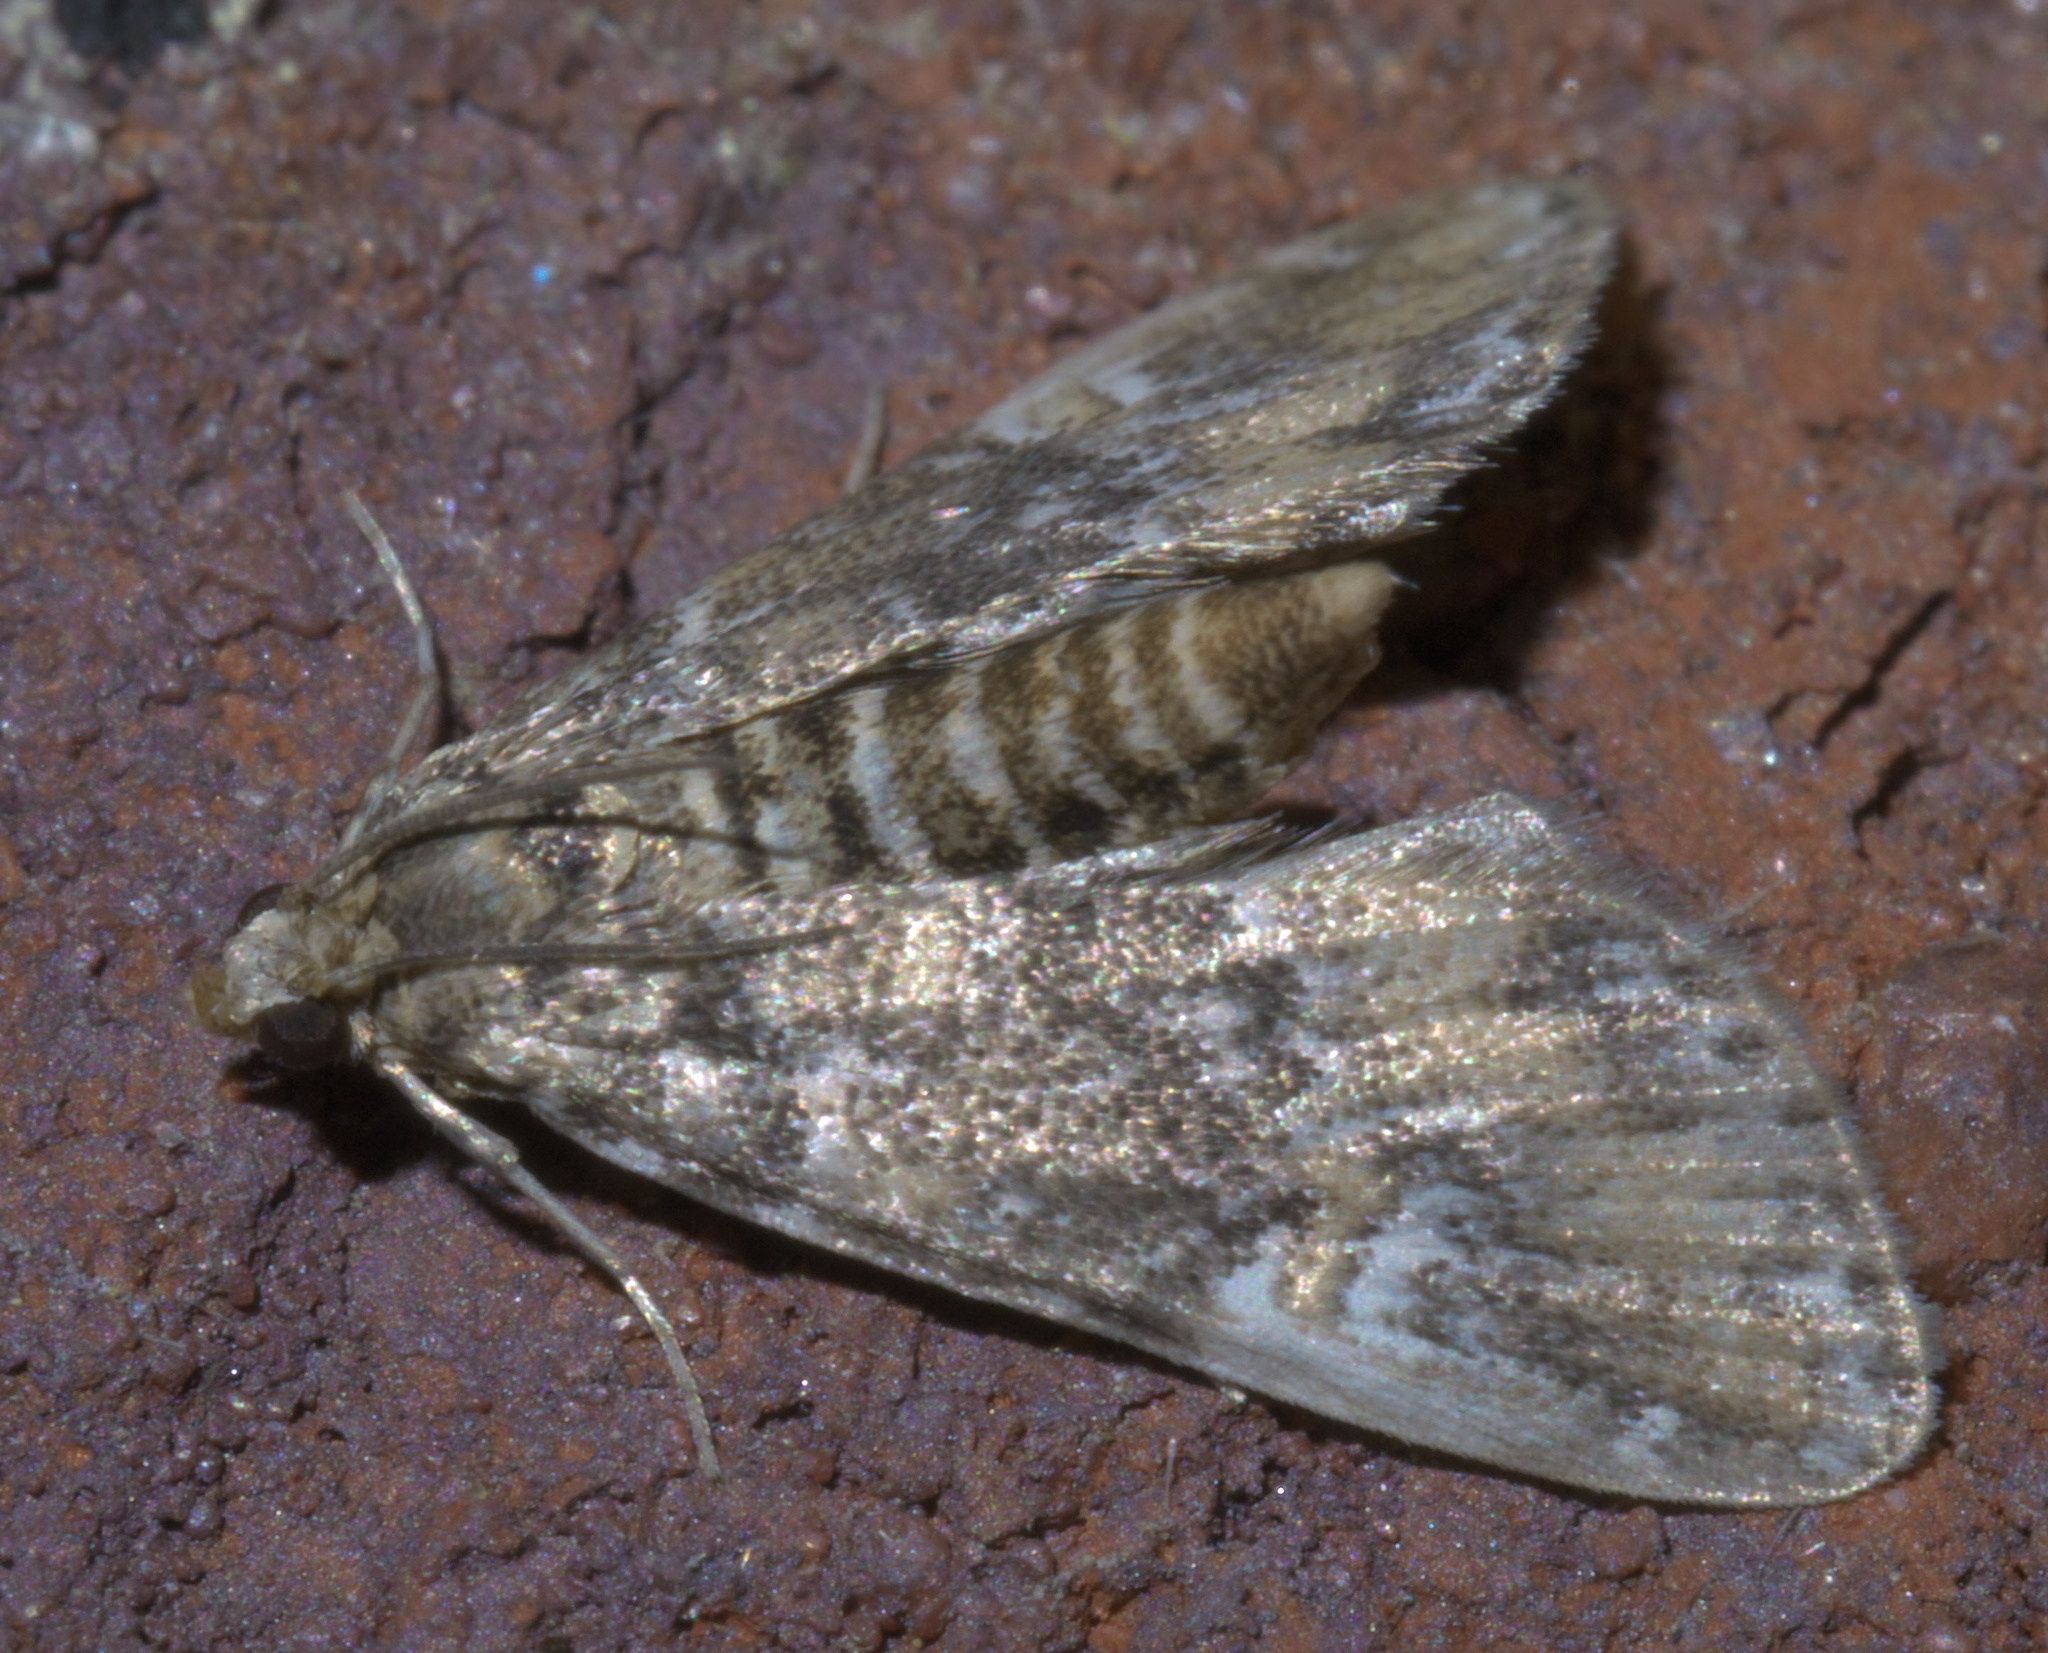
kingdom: Animalia
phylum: Arthropoda
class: Insecta
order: Lepidoptera
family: Crambidae
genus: Elophila
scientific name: Elophila obliteralis
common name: Waterlily leafcutter moth
